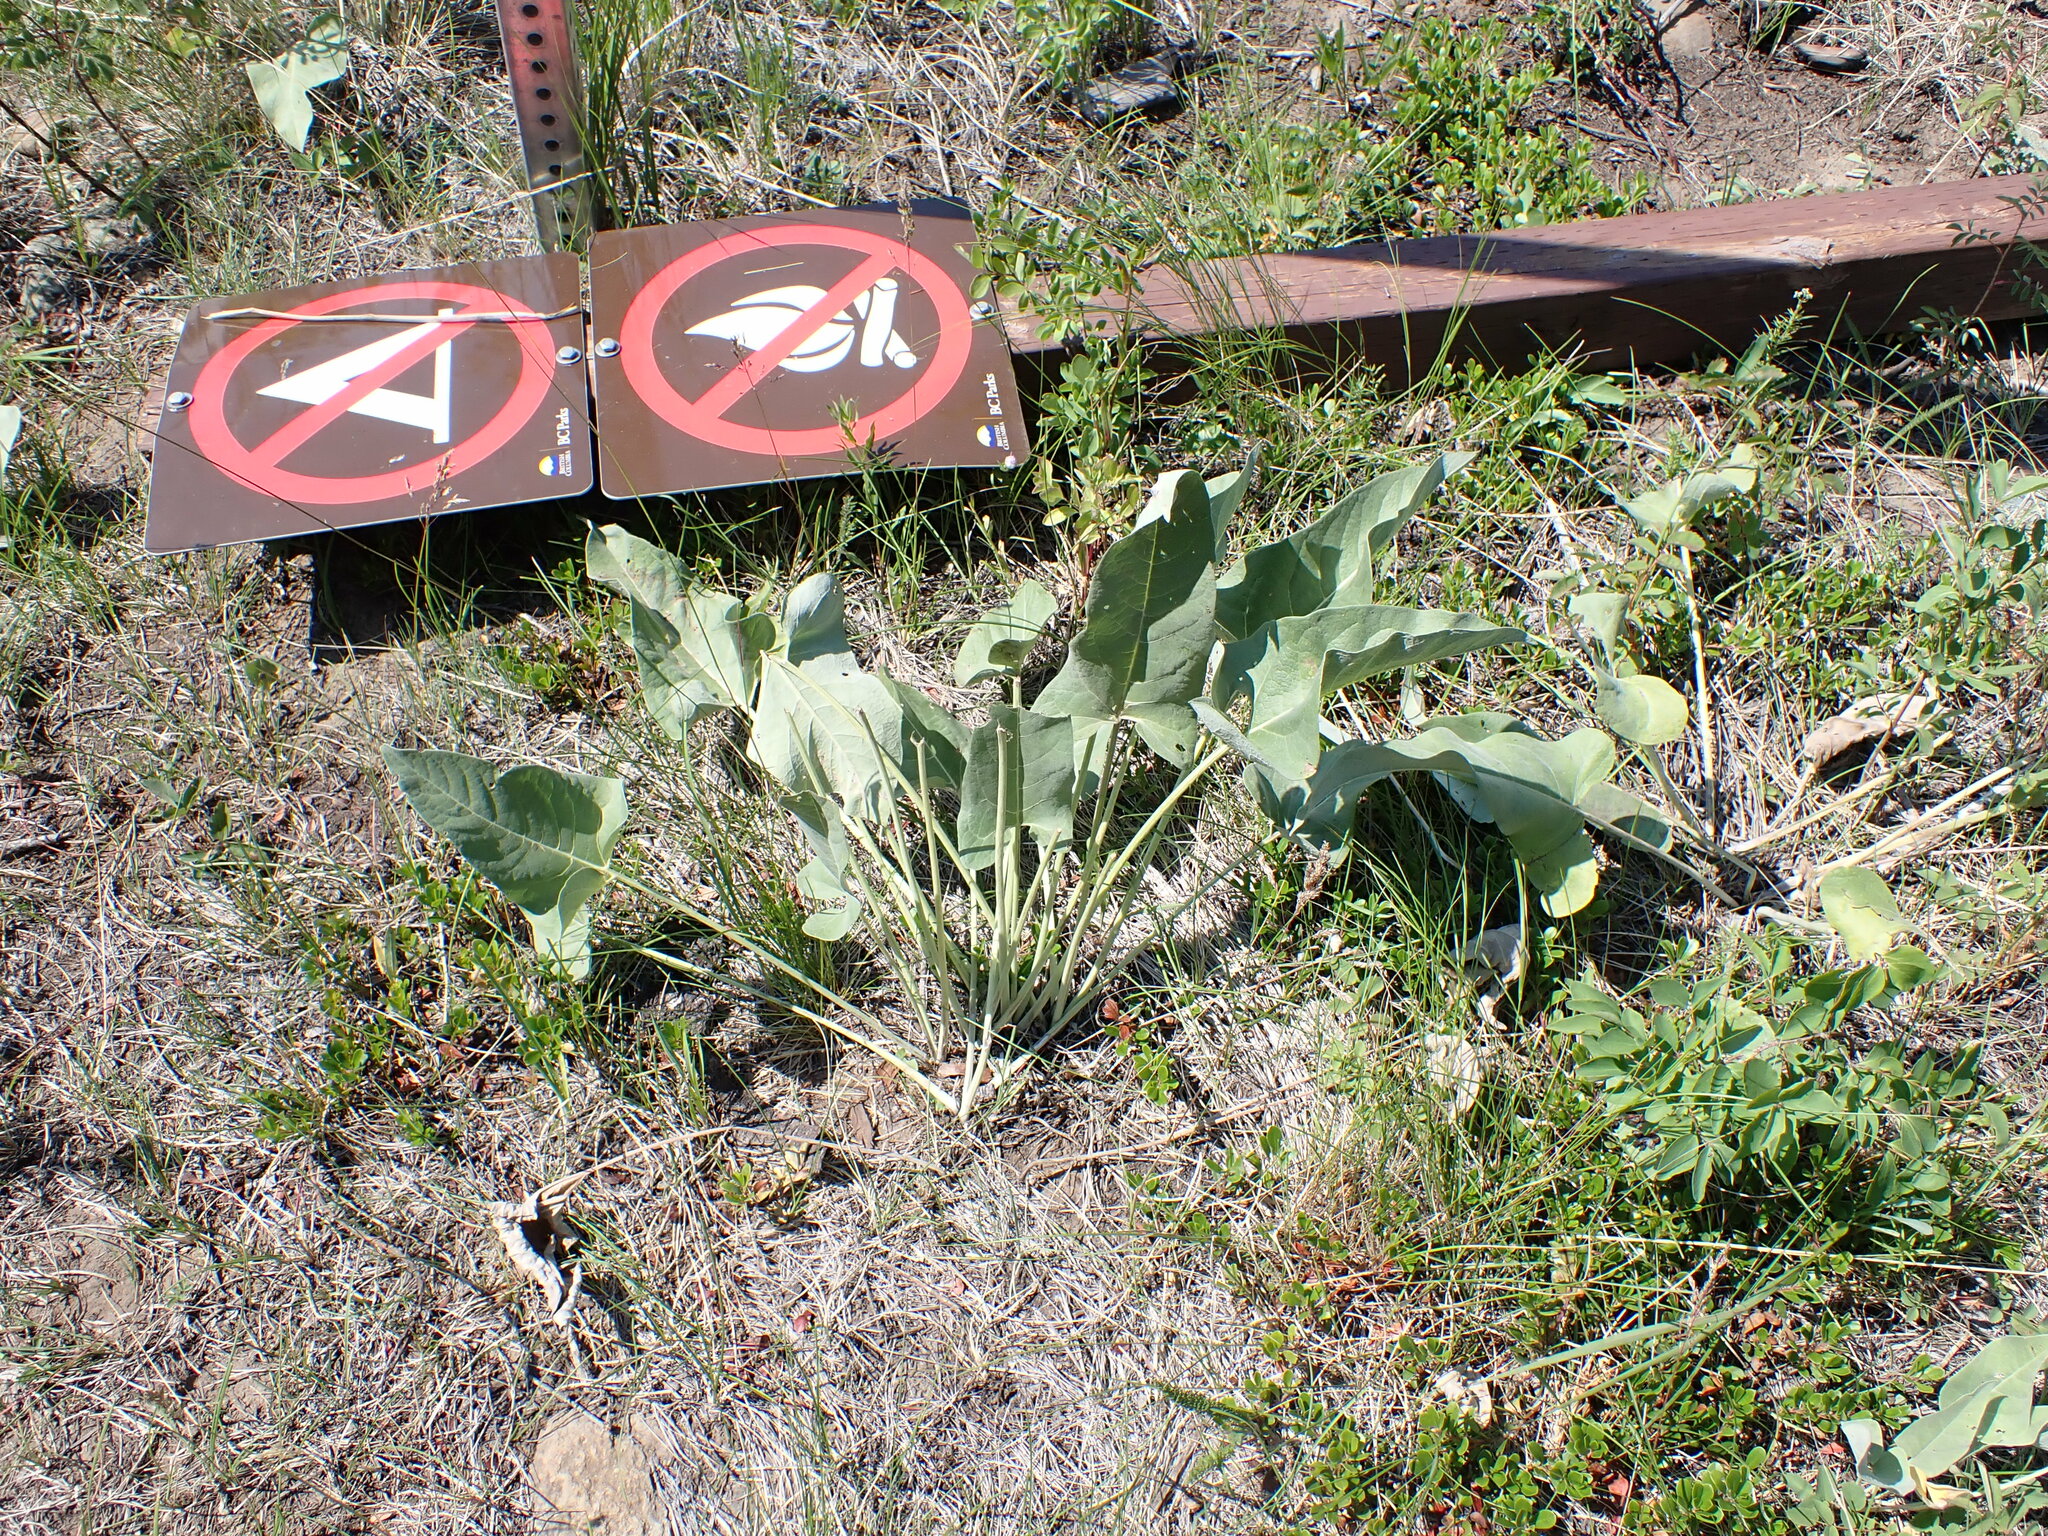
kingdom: Plantae
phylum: Tracheophyta
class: Magnoliopsida
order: Asterales
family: Asteraceae
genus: Wyethia
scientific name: Wyethia sagittata
